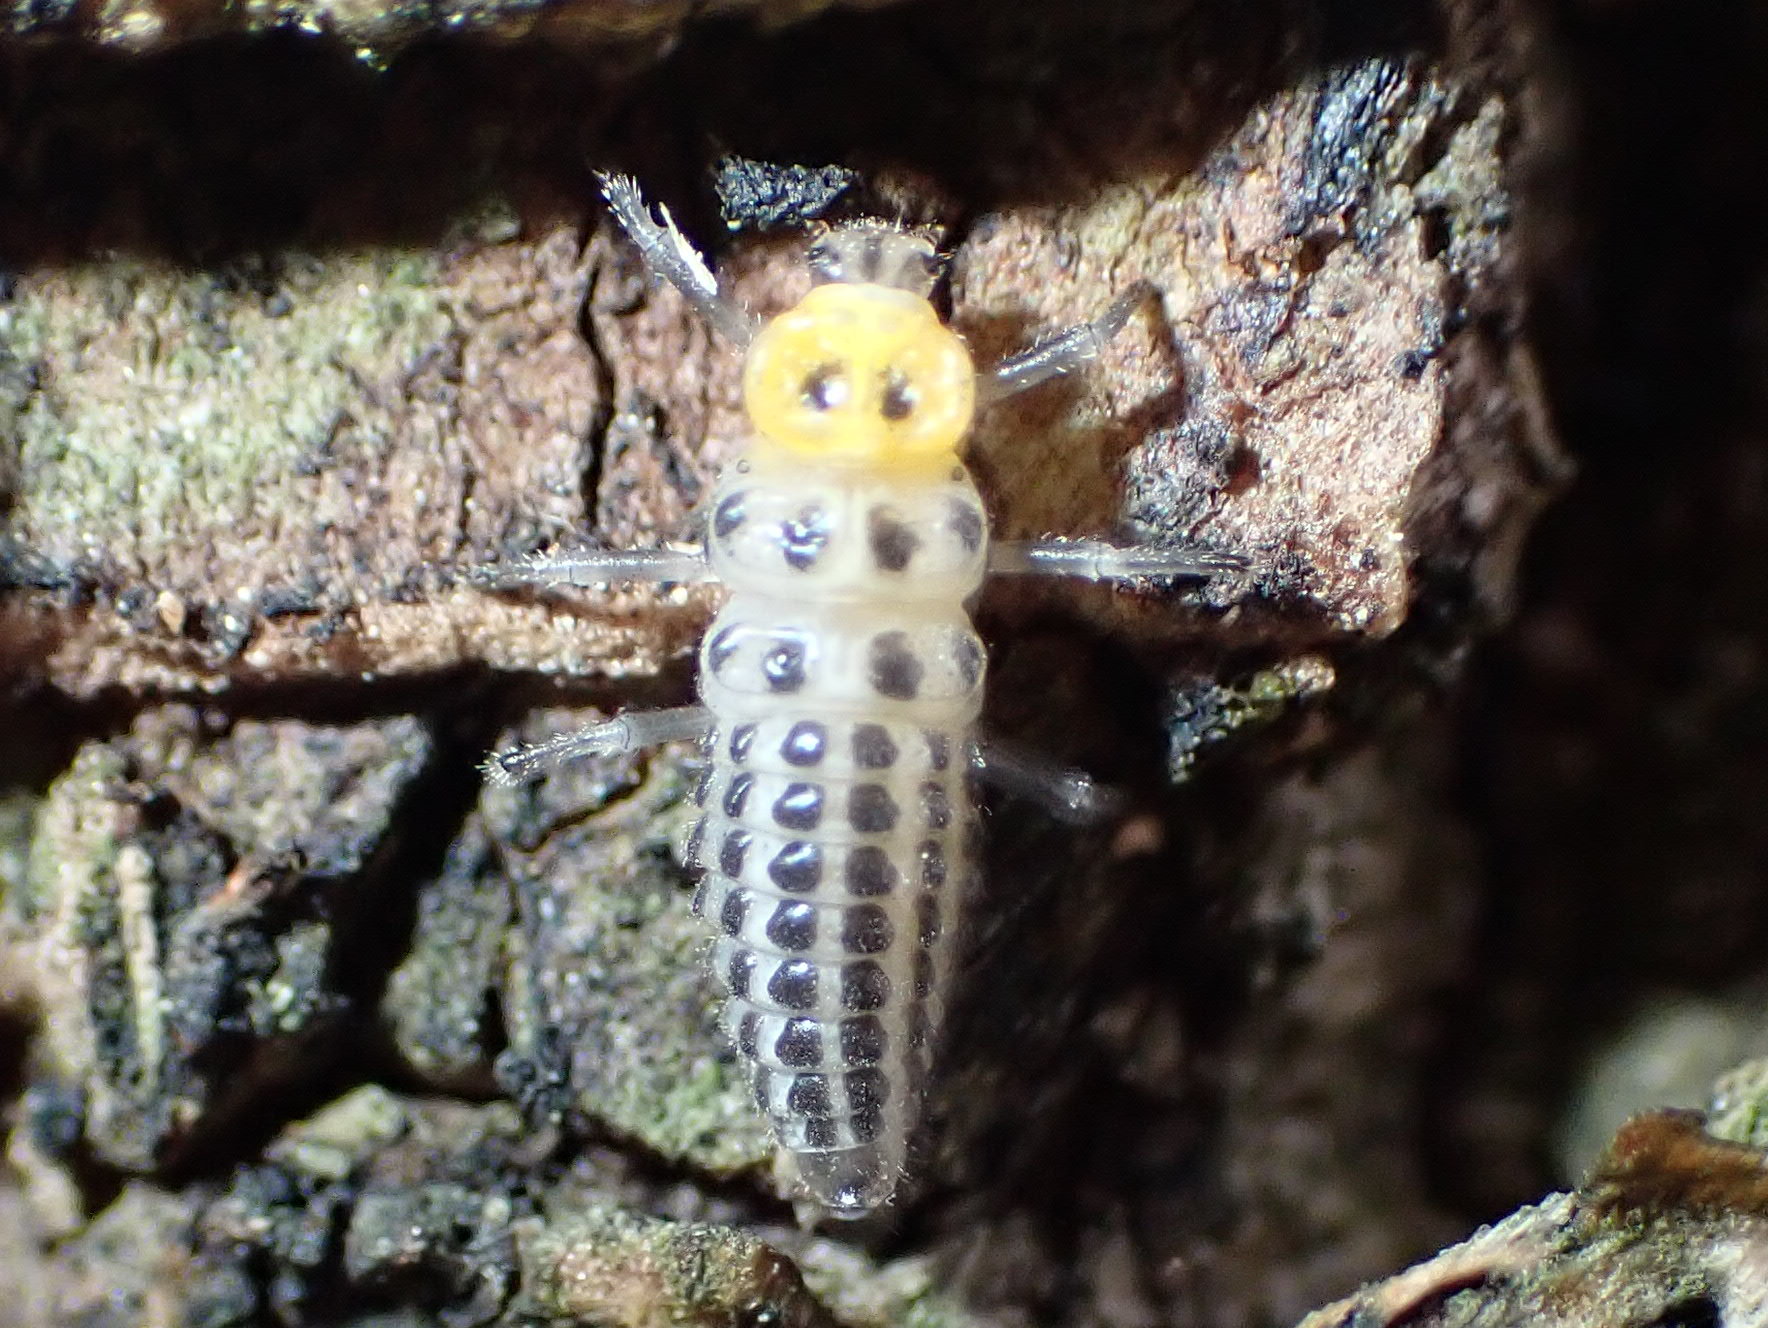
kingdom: Animalia
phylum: Arthropoda
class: Insecta
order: Coleoptera
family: Coccinellidae
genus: Illeis
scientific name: Illeis galbula
